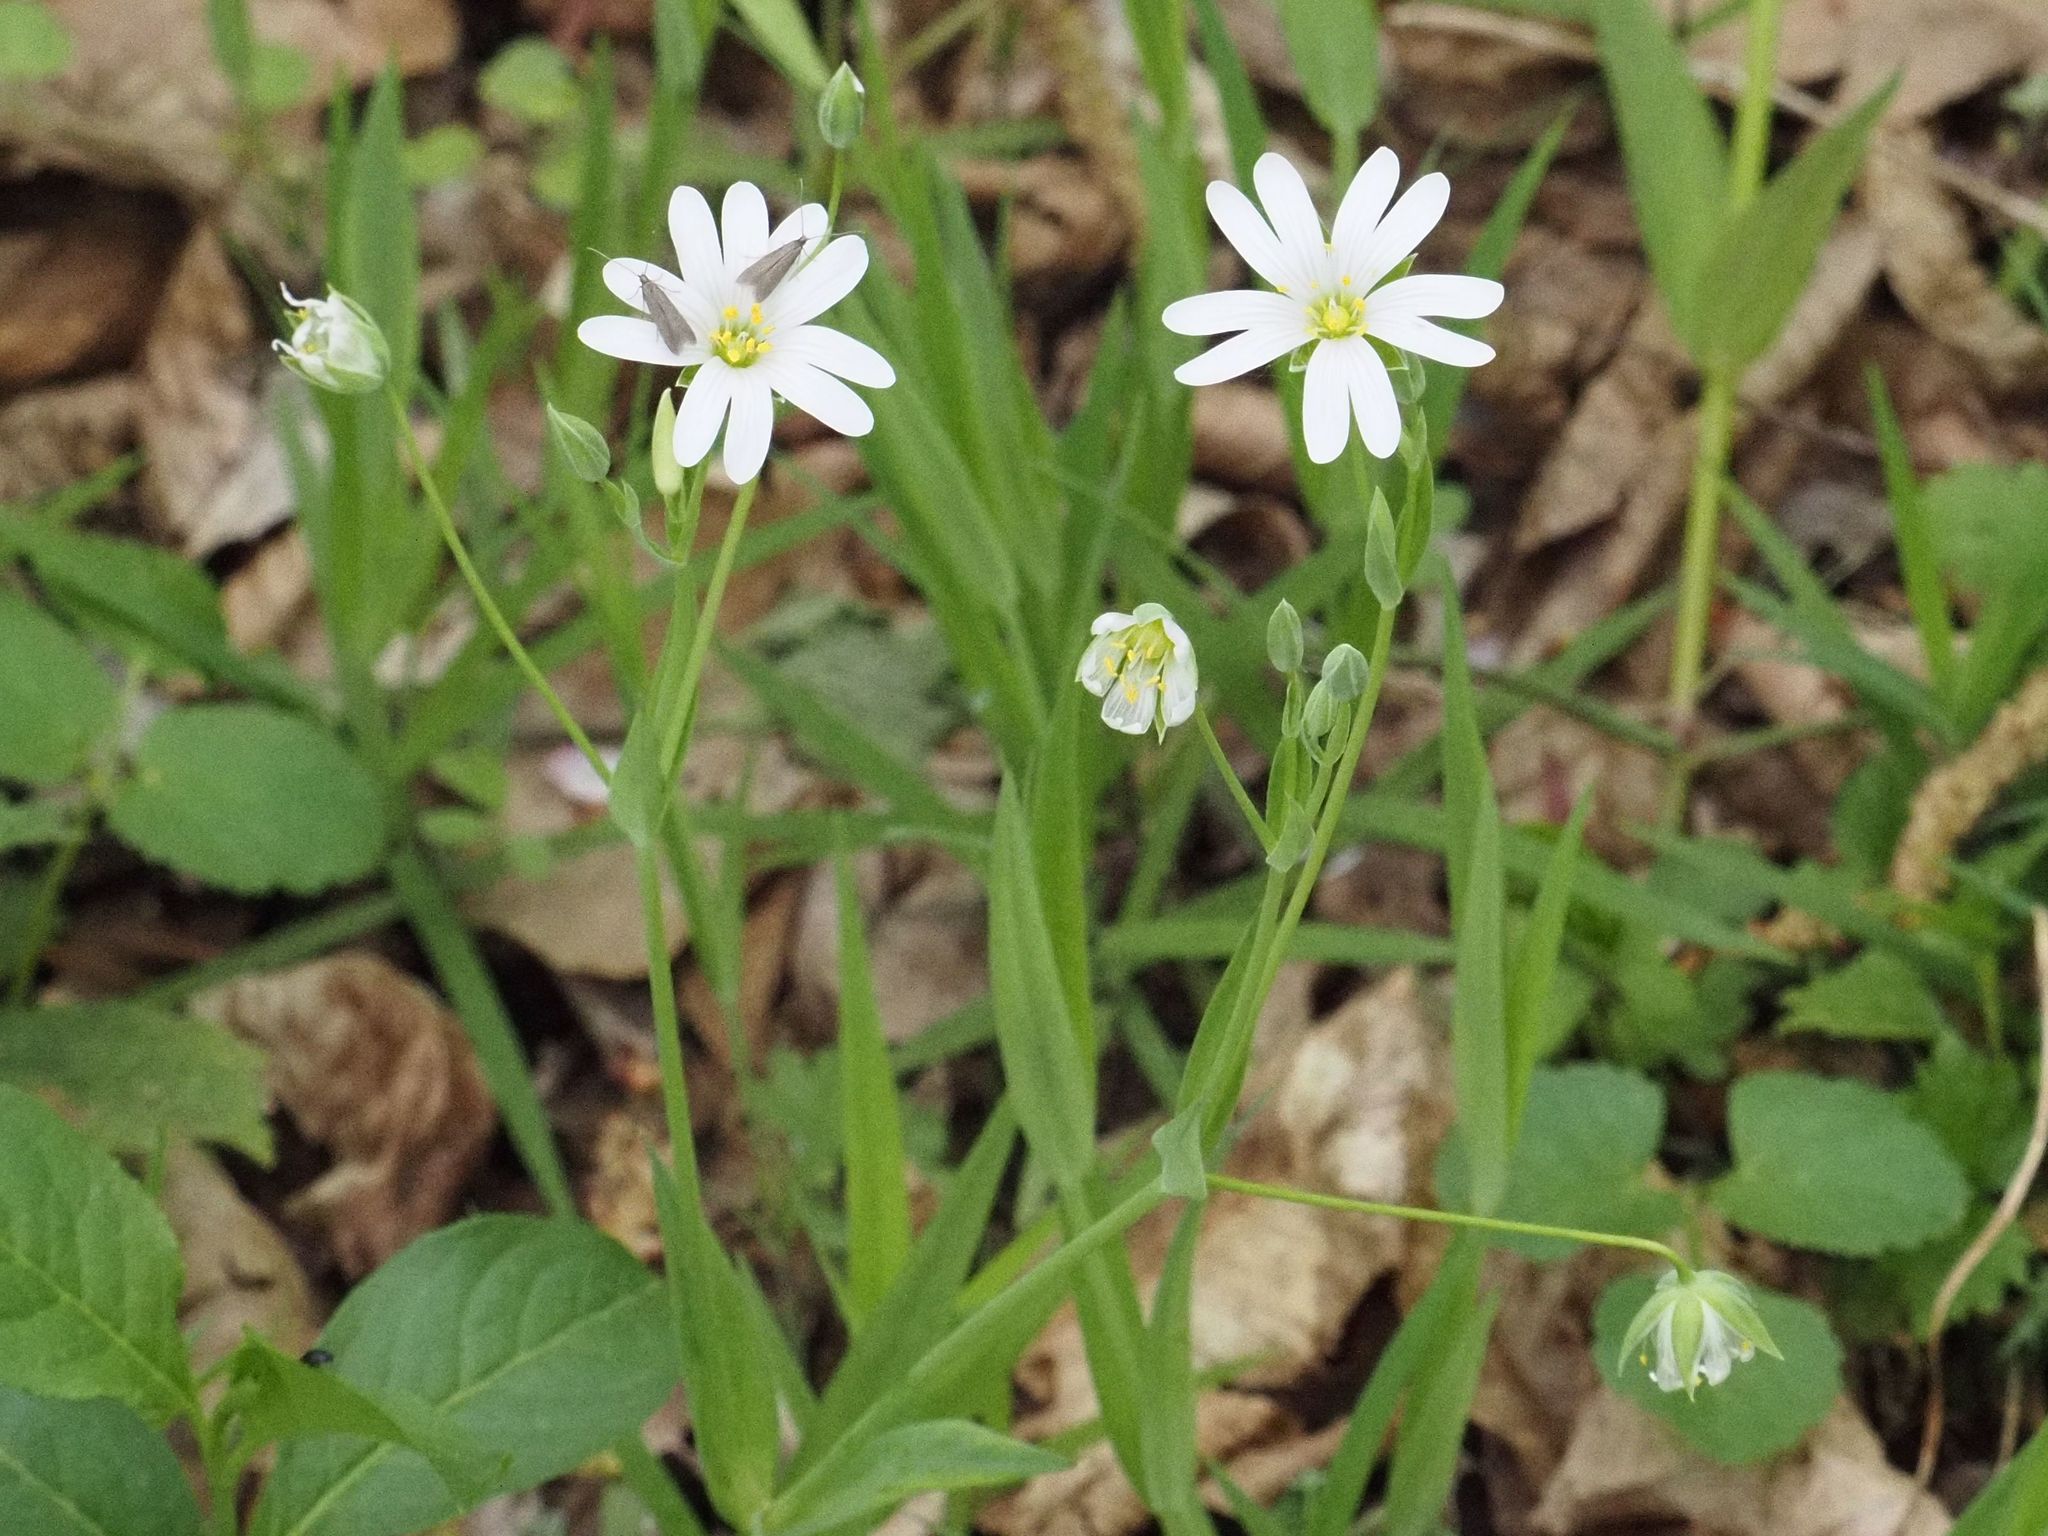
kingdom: Plantae
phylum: Tracheophyta
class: Magnoliopsida
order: Caryophyllales
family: Caryophyllaceae
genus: Rabelera
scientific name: Rabelera holostea
